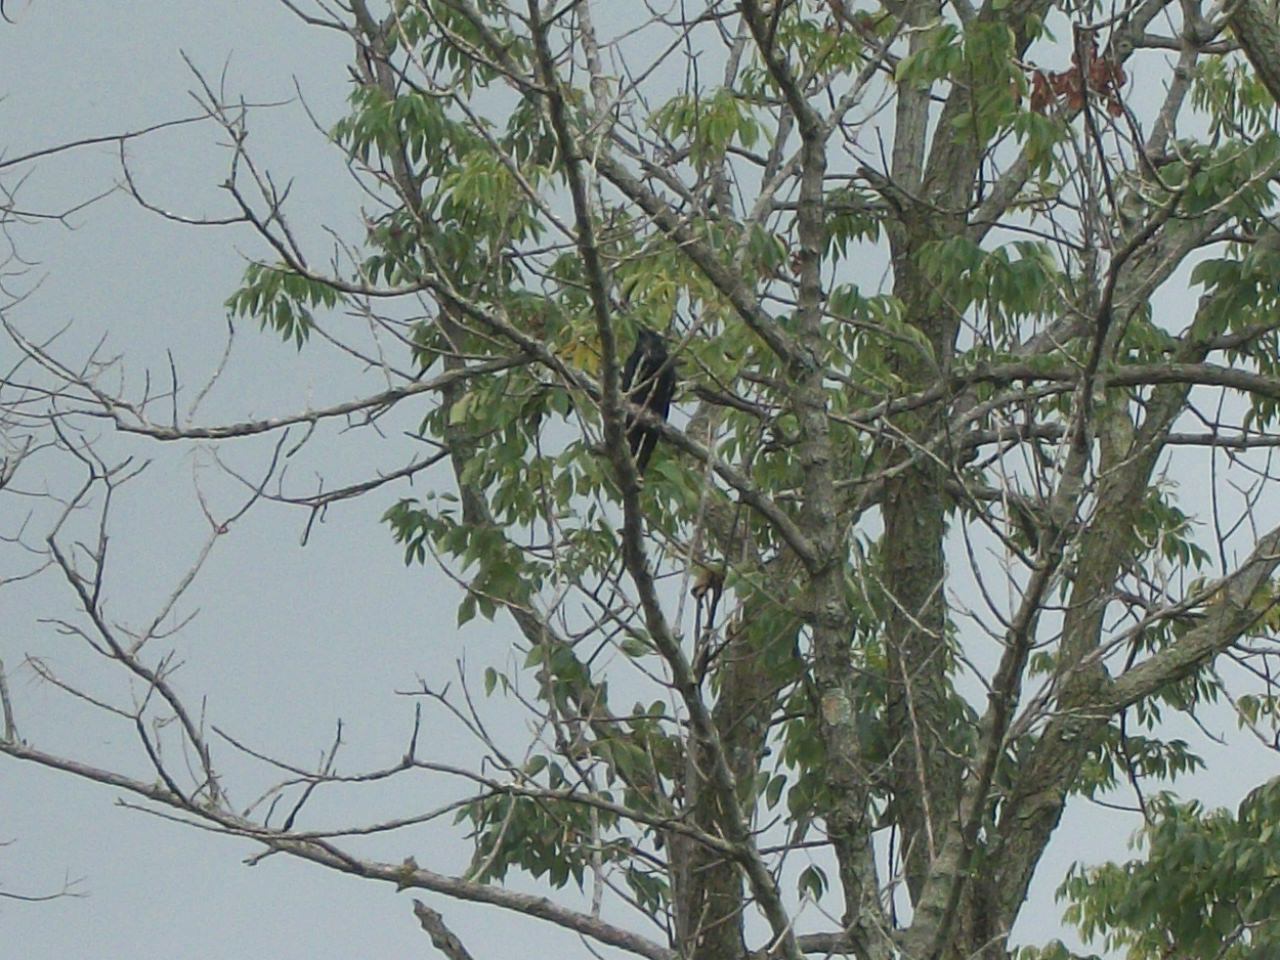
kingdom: Animalia
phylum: Chordata
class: Aves
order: Passeriformes
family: Corvidae
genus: Corvus
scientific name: Corvus ossifragus
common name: Fish crow
